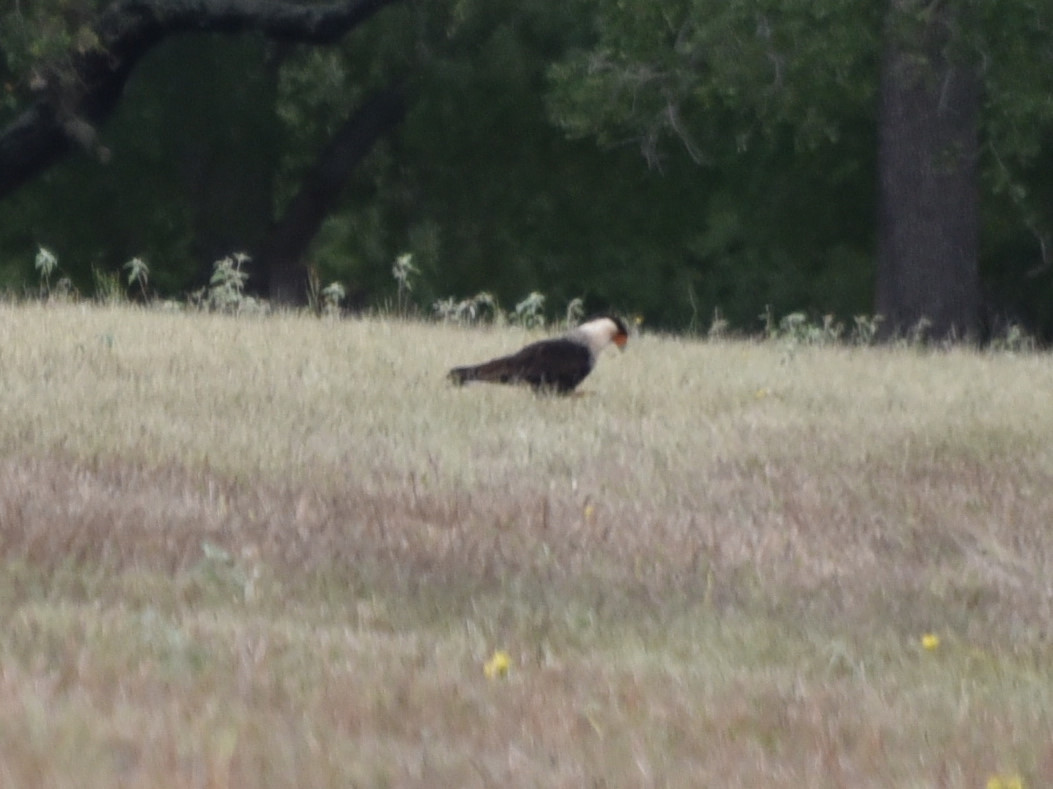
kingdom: Animalia
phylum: Chordata
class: Aves
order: Falconiformes
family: Falconidae
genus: Caracara
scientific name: Caracara plancus
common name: Southern caracara
